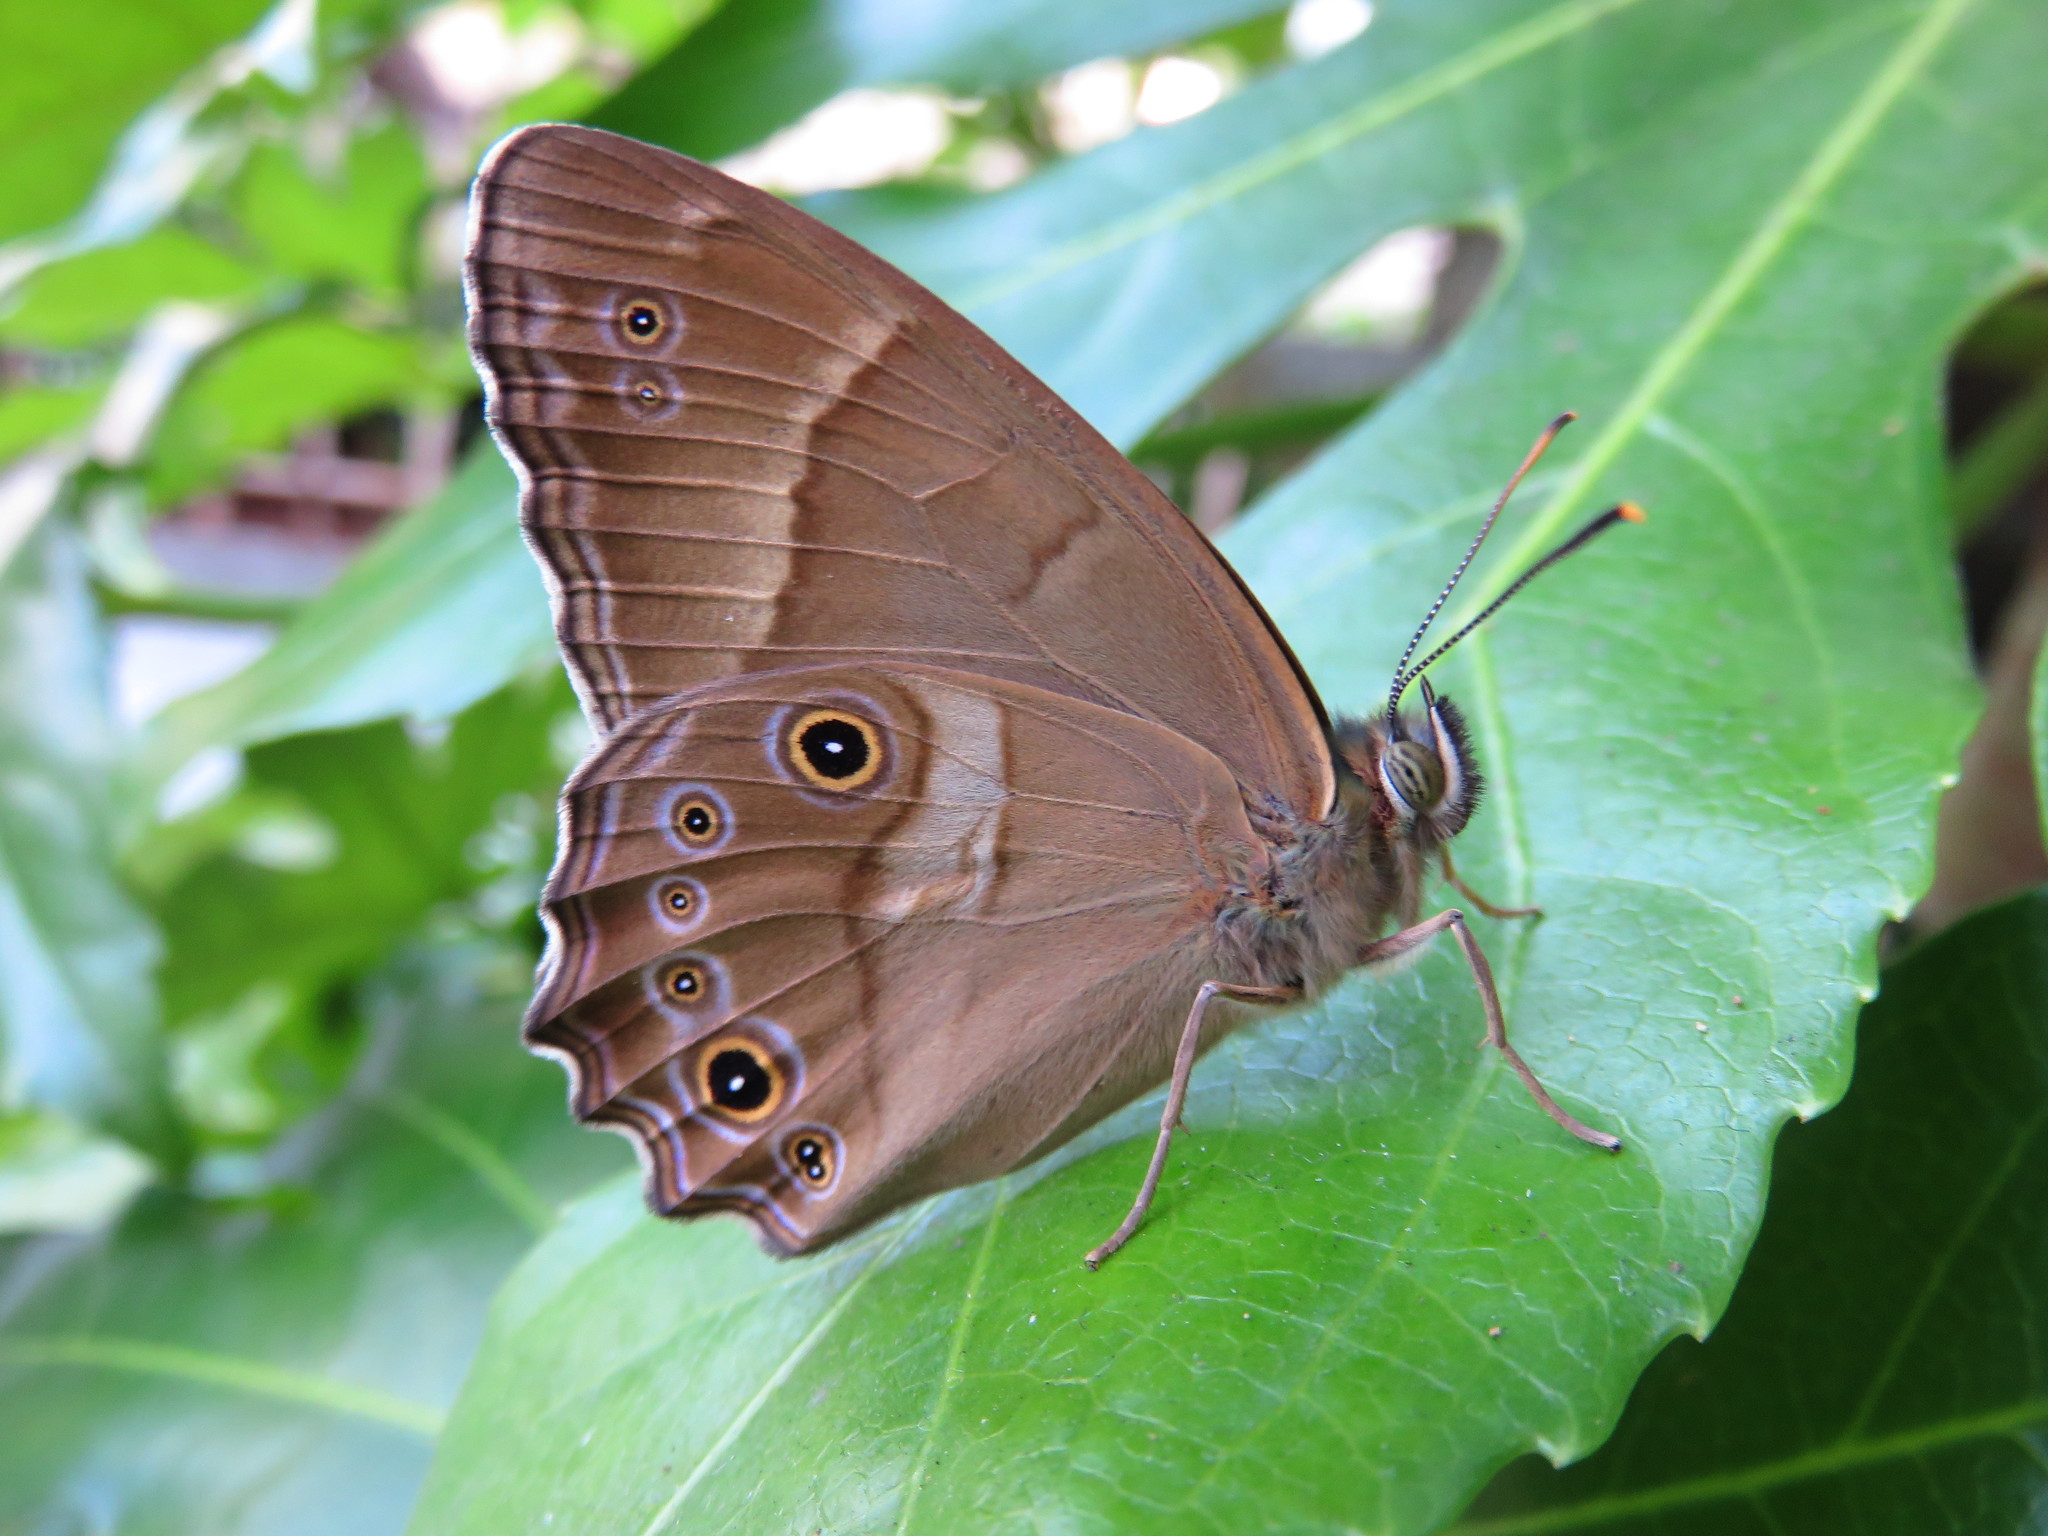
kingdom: Animalia
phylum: Arthropoda
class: Insecta
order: Lepidoptera
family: Nymphalidae
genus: Lethe
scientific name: Lethe sicelis
